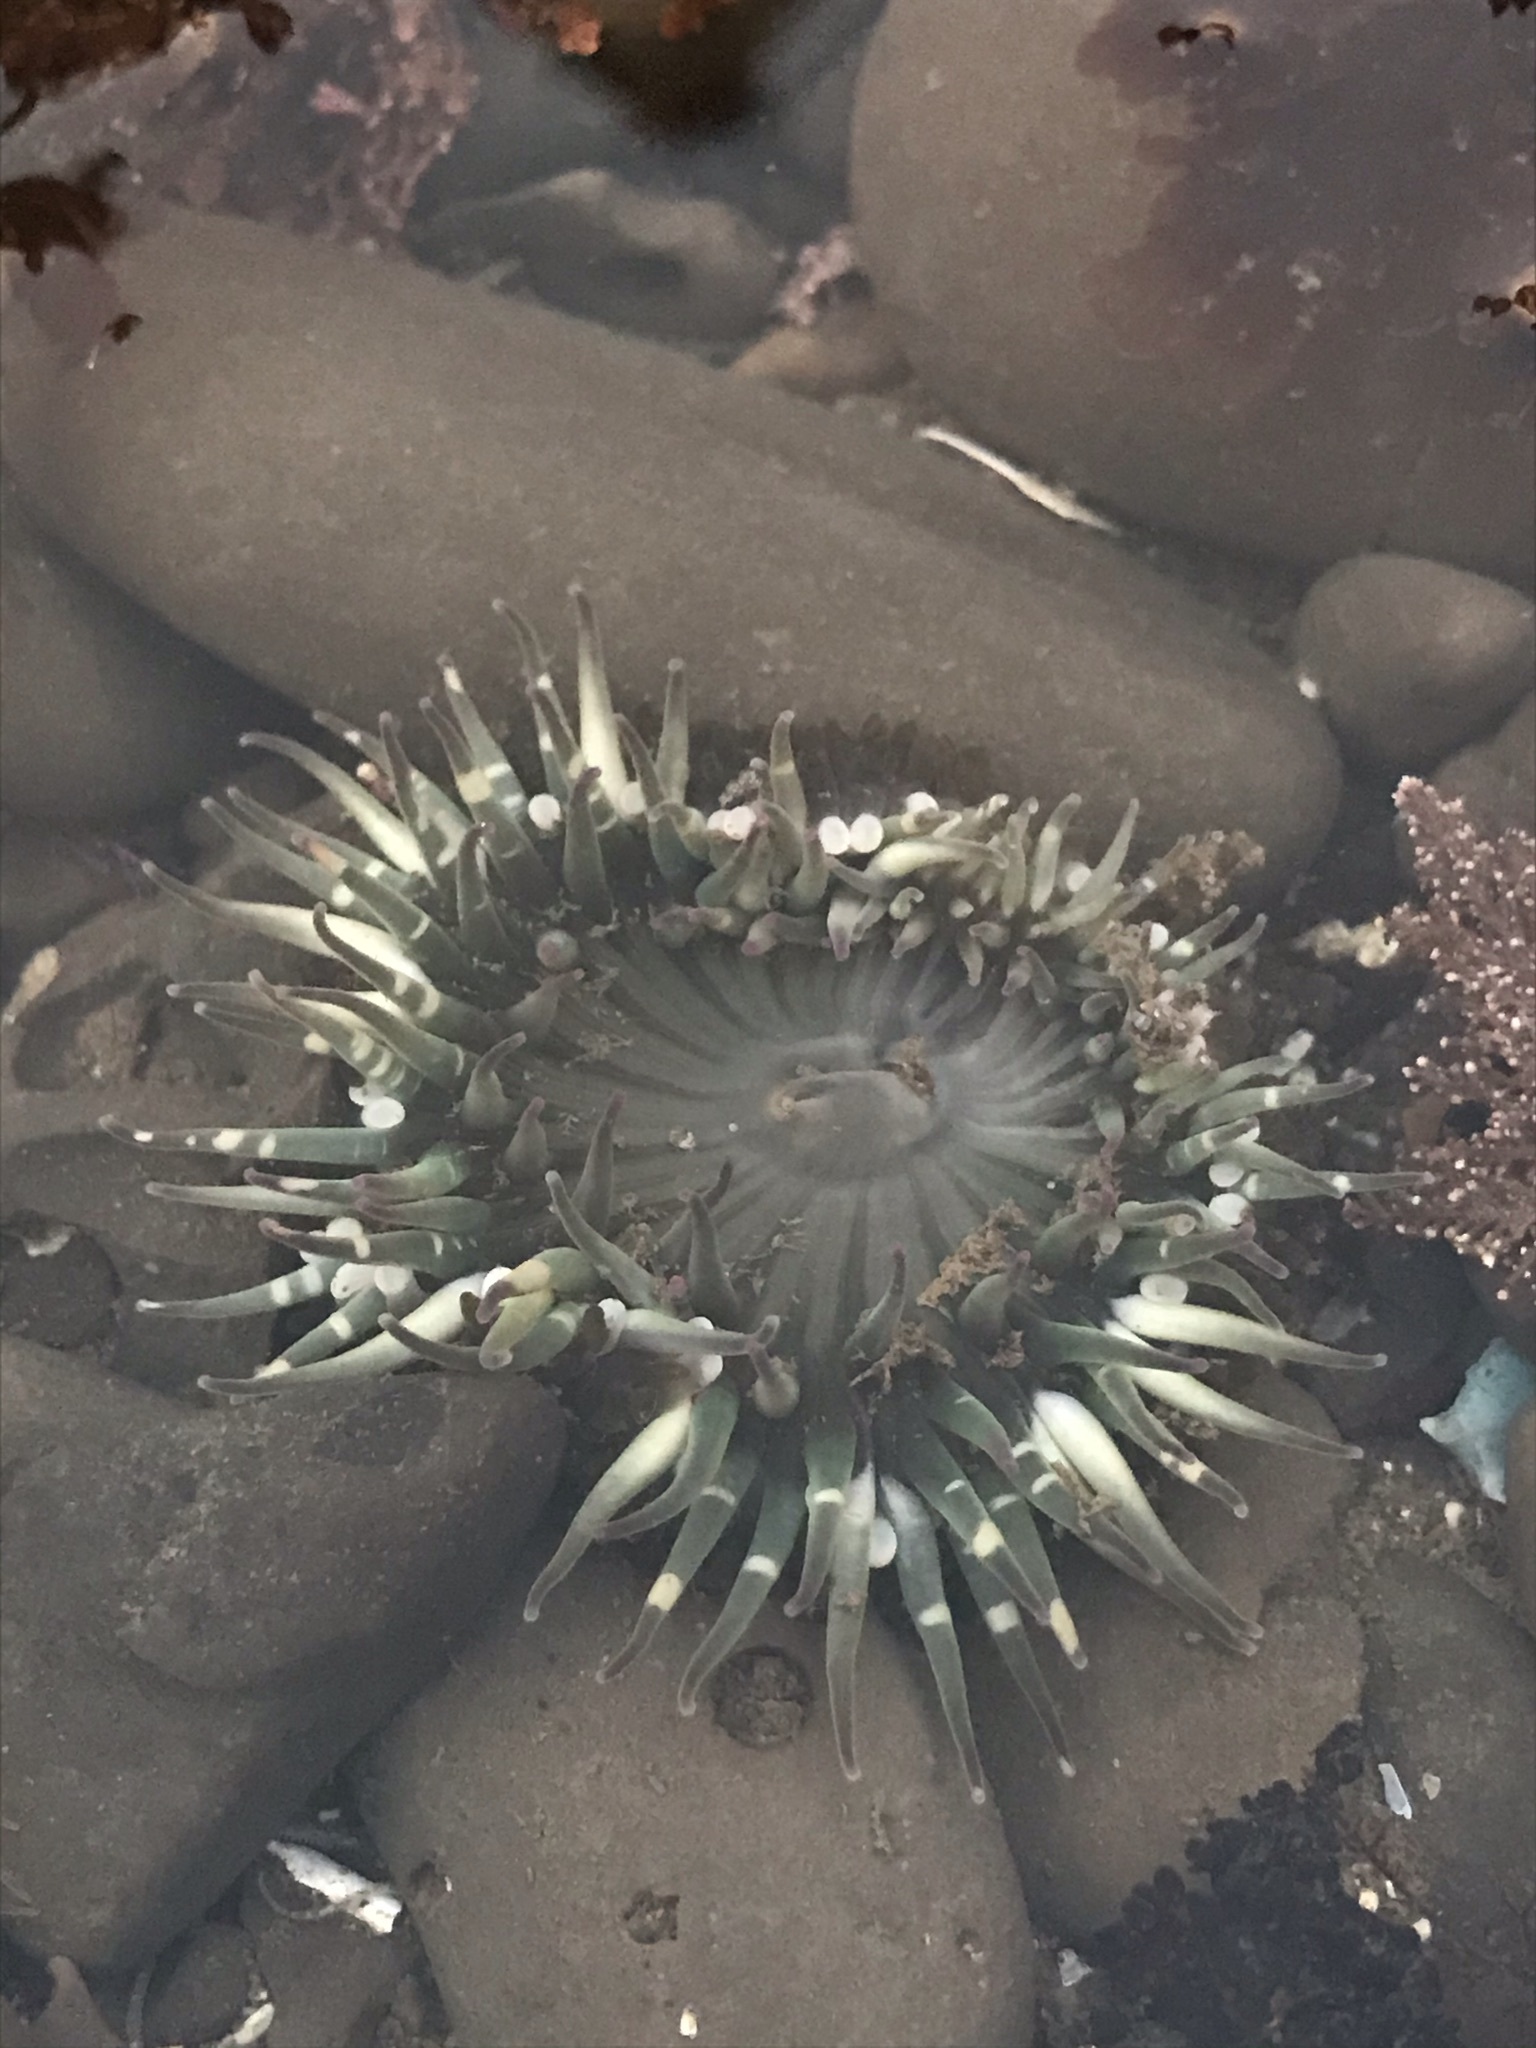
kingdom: Animalia
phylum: Cnidaria
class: Anthozoa
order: Actiniaria
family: Actiniidae
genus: Anthopleura
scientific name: Anthopleura sola
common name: Sun anemone
